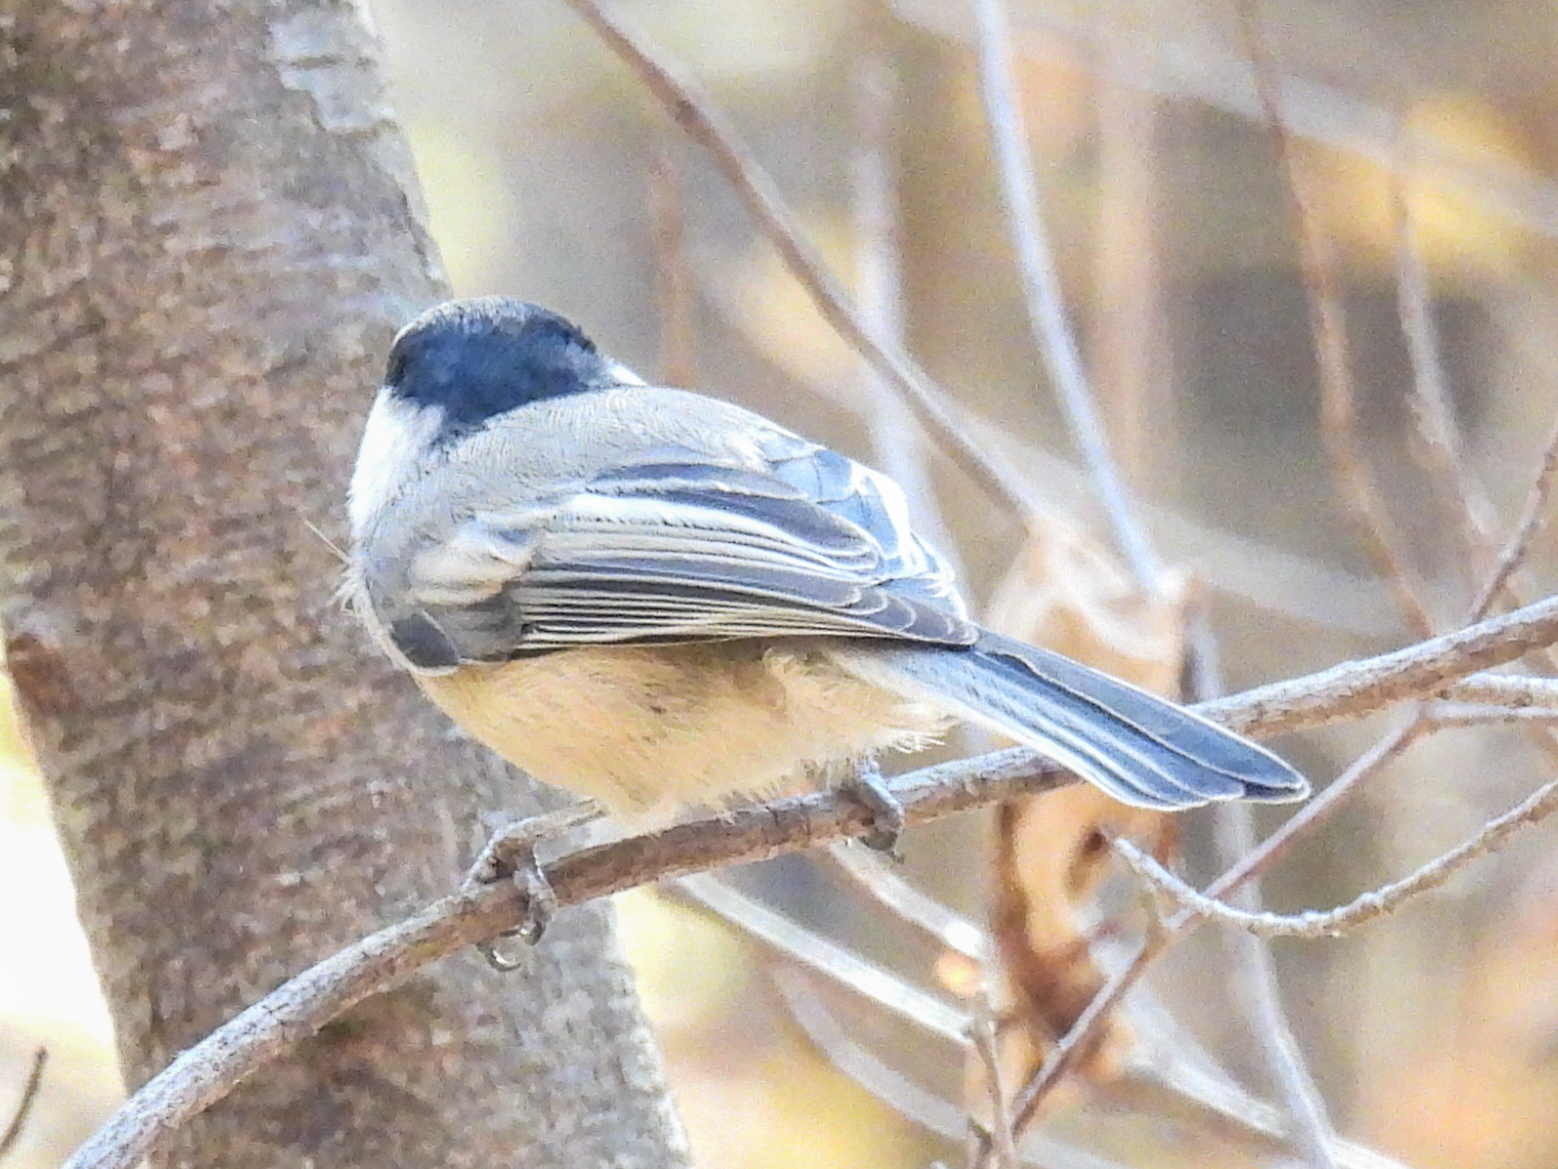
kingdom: Animalia
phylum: Chordata
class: Aves
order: Passeriformes
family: Paridae
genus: Poecile
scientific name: Poecile atricapillus
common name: Black-capped chickadee
